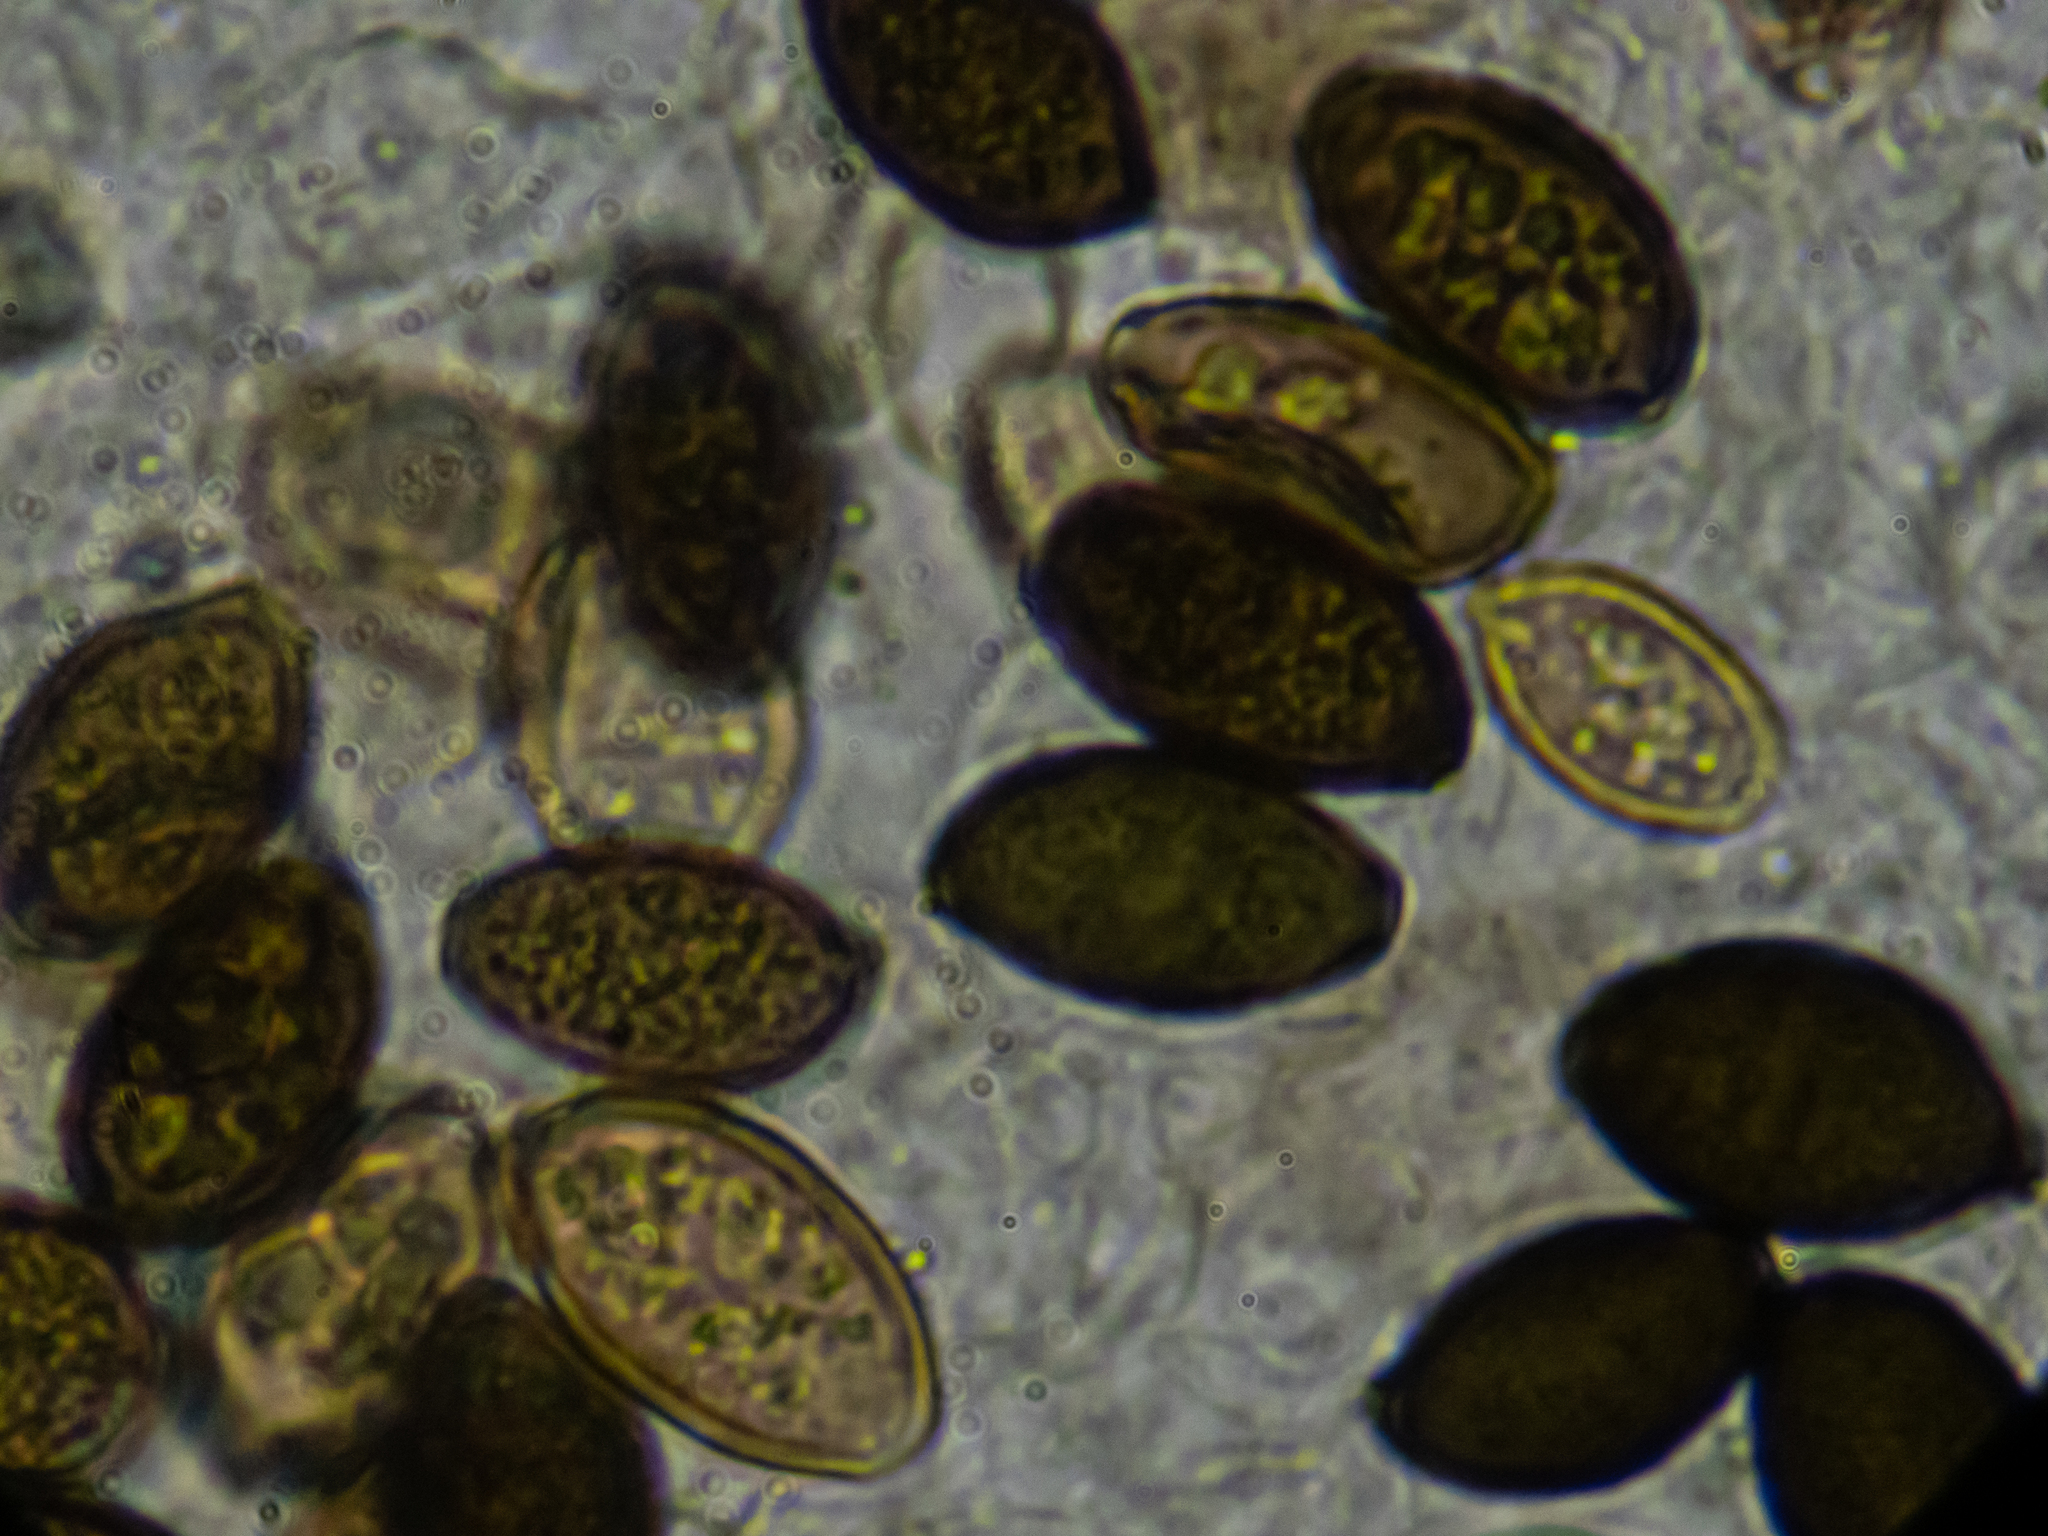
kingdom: Fungi
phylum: Basidiomycota
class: Agaricomycetes
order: Agaricales
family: Bolbitiaceae
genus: Panaeolus
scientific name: Panaeolus olivaceus
